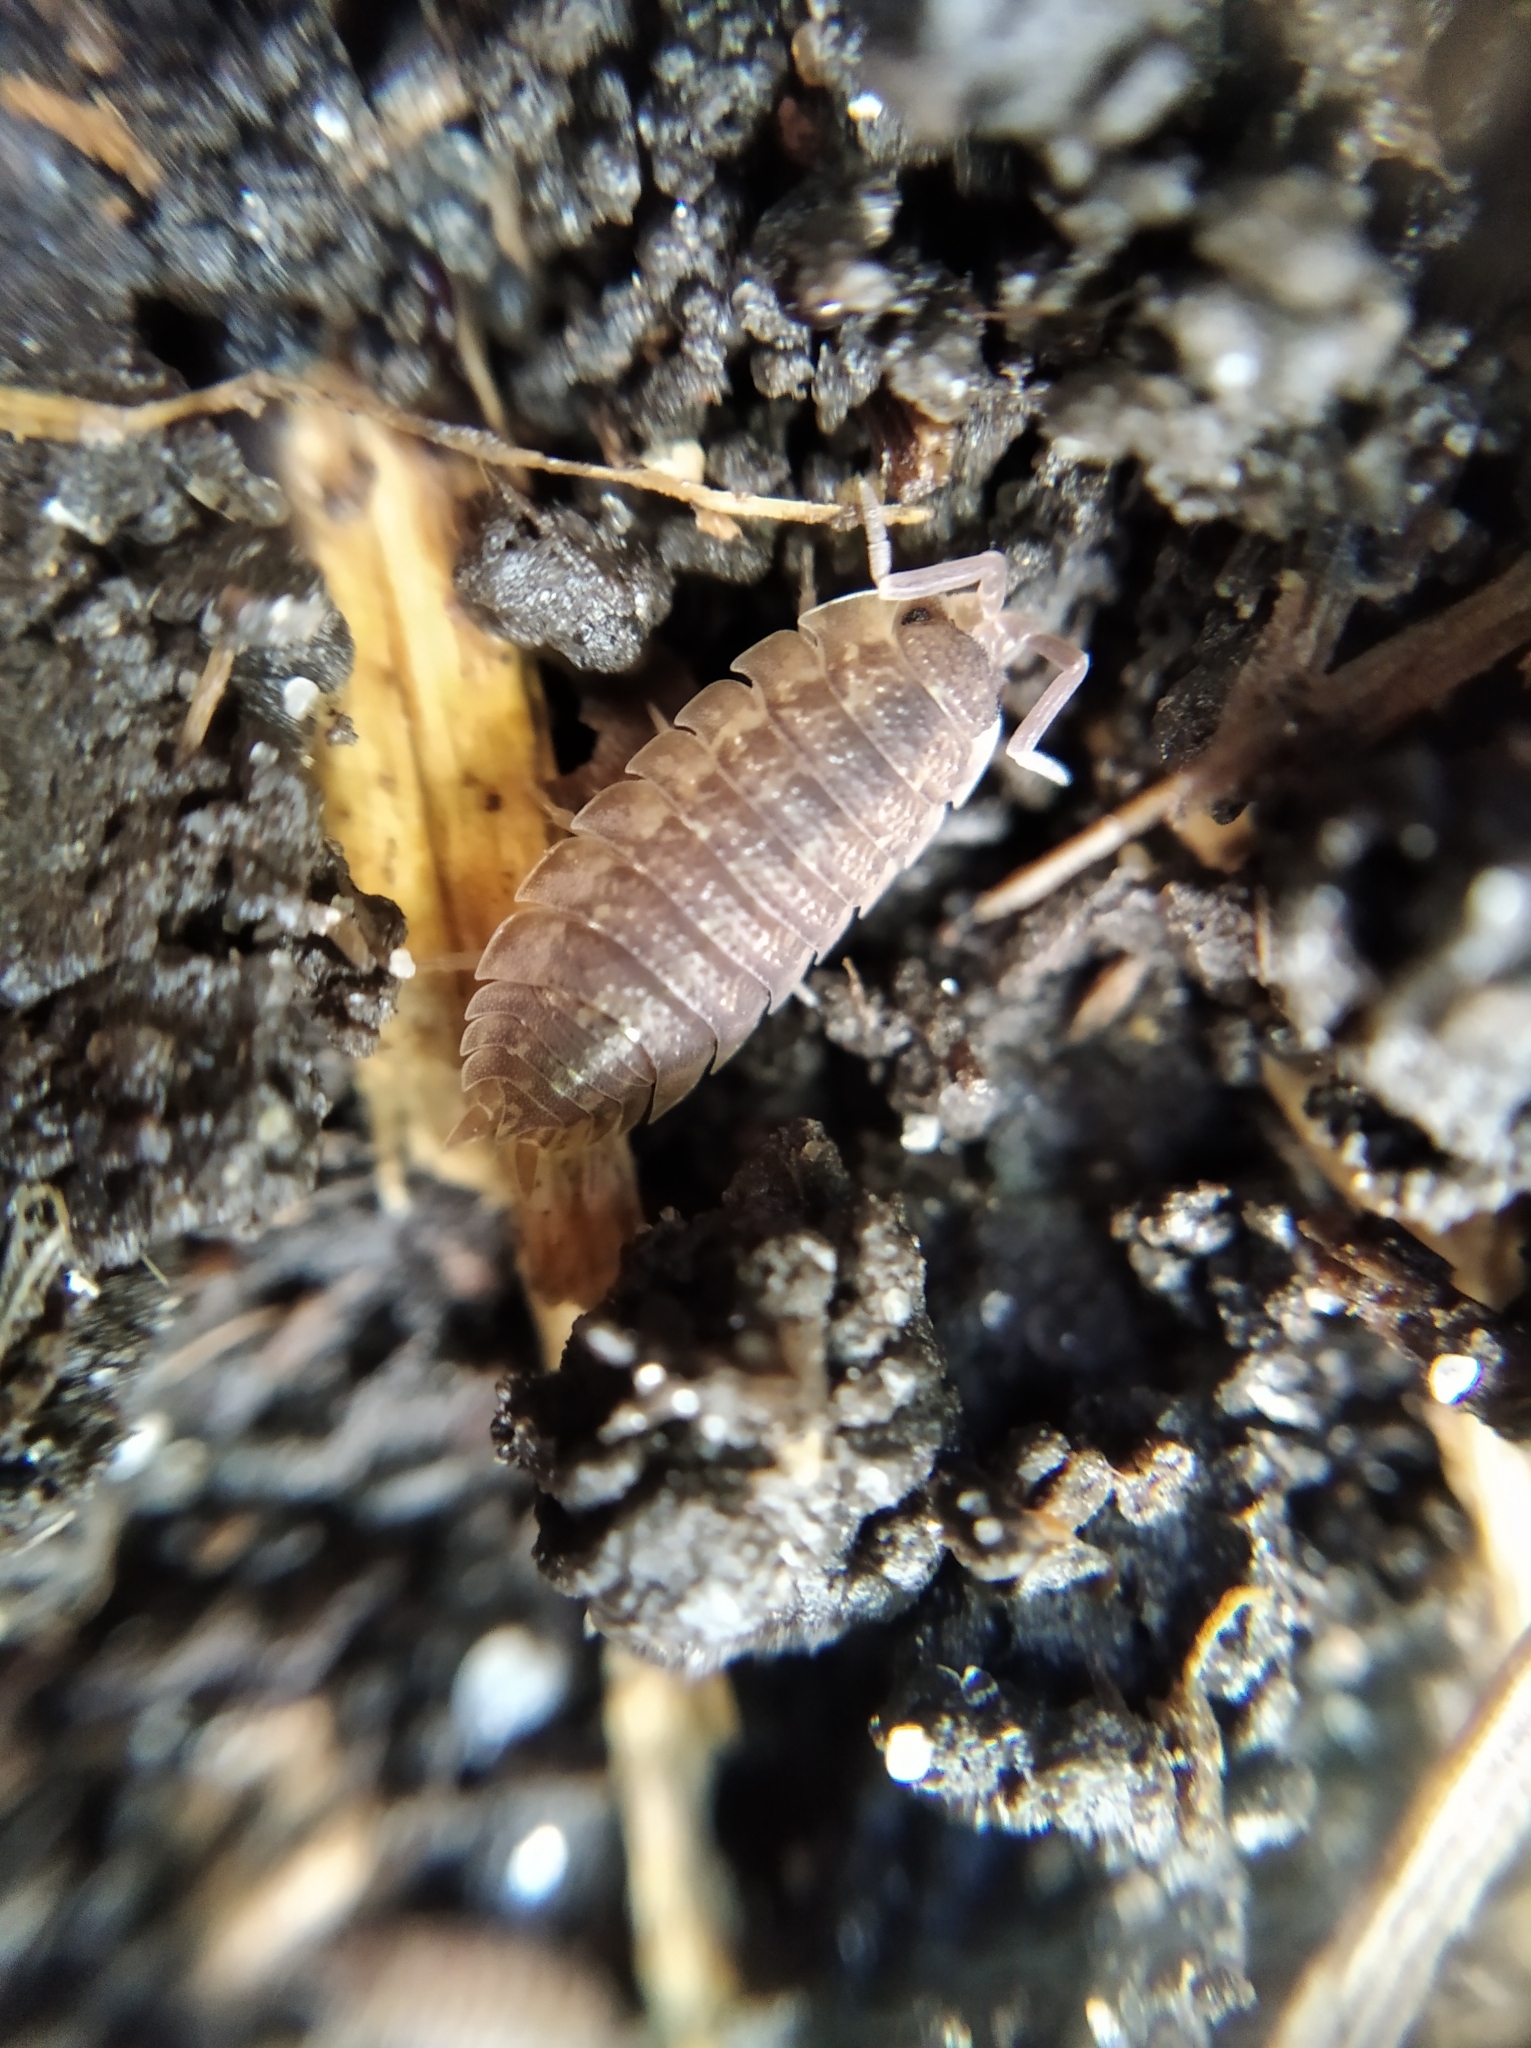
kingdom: Animalia
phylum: Arthropoda
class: Malacostraca
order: Isopoda
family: Porcellionidae
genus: Porcellio
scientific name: Porcellio scaber
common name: Common rough woodlouse
